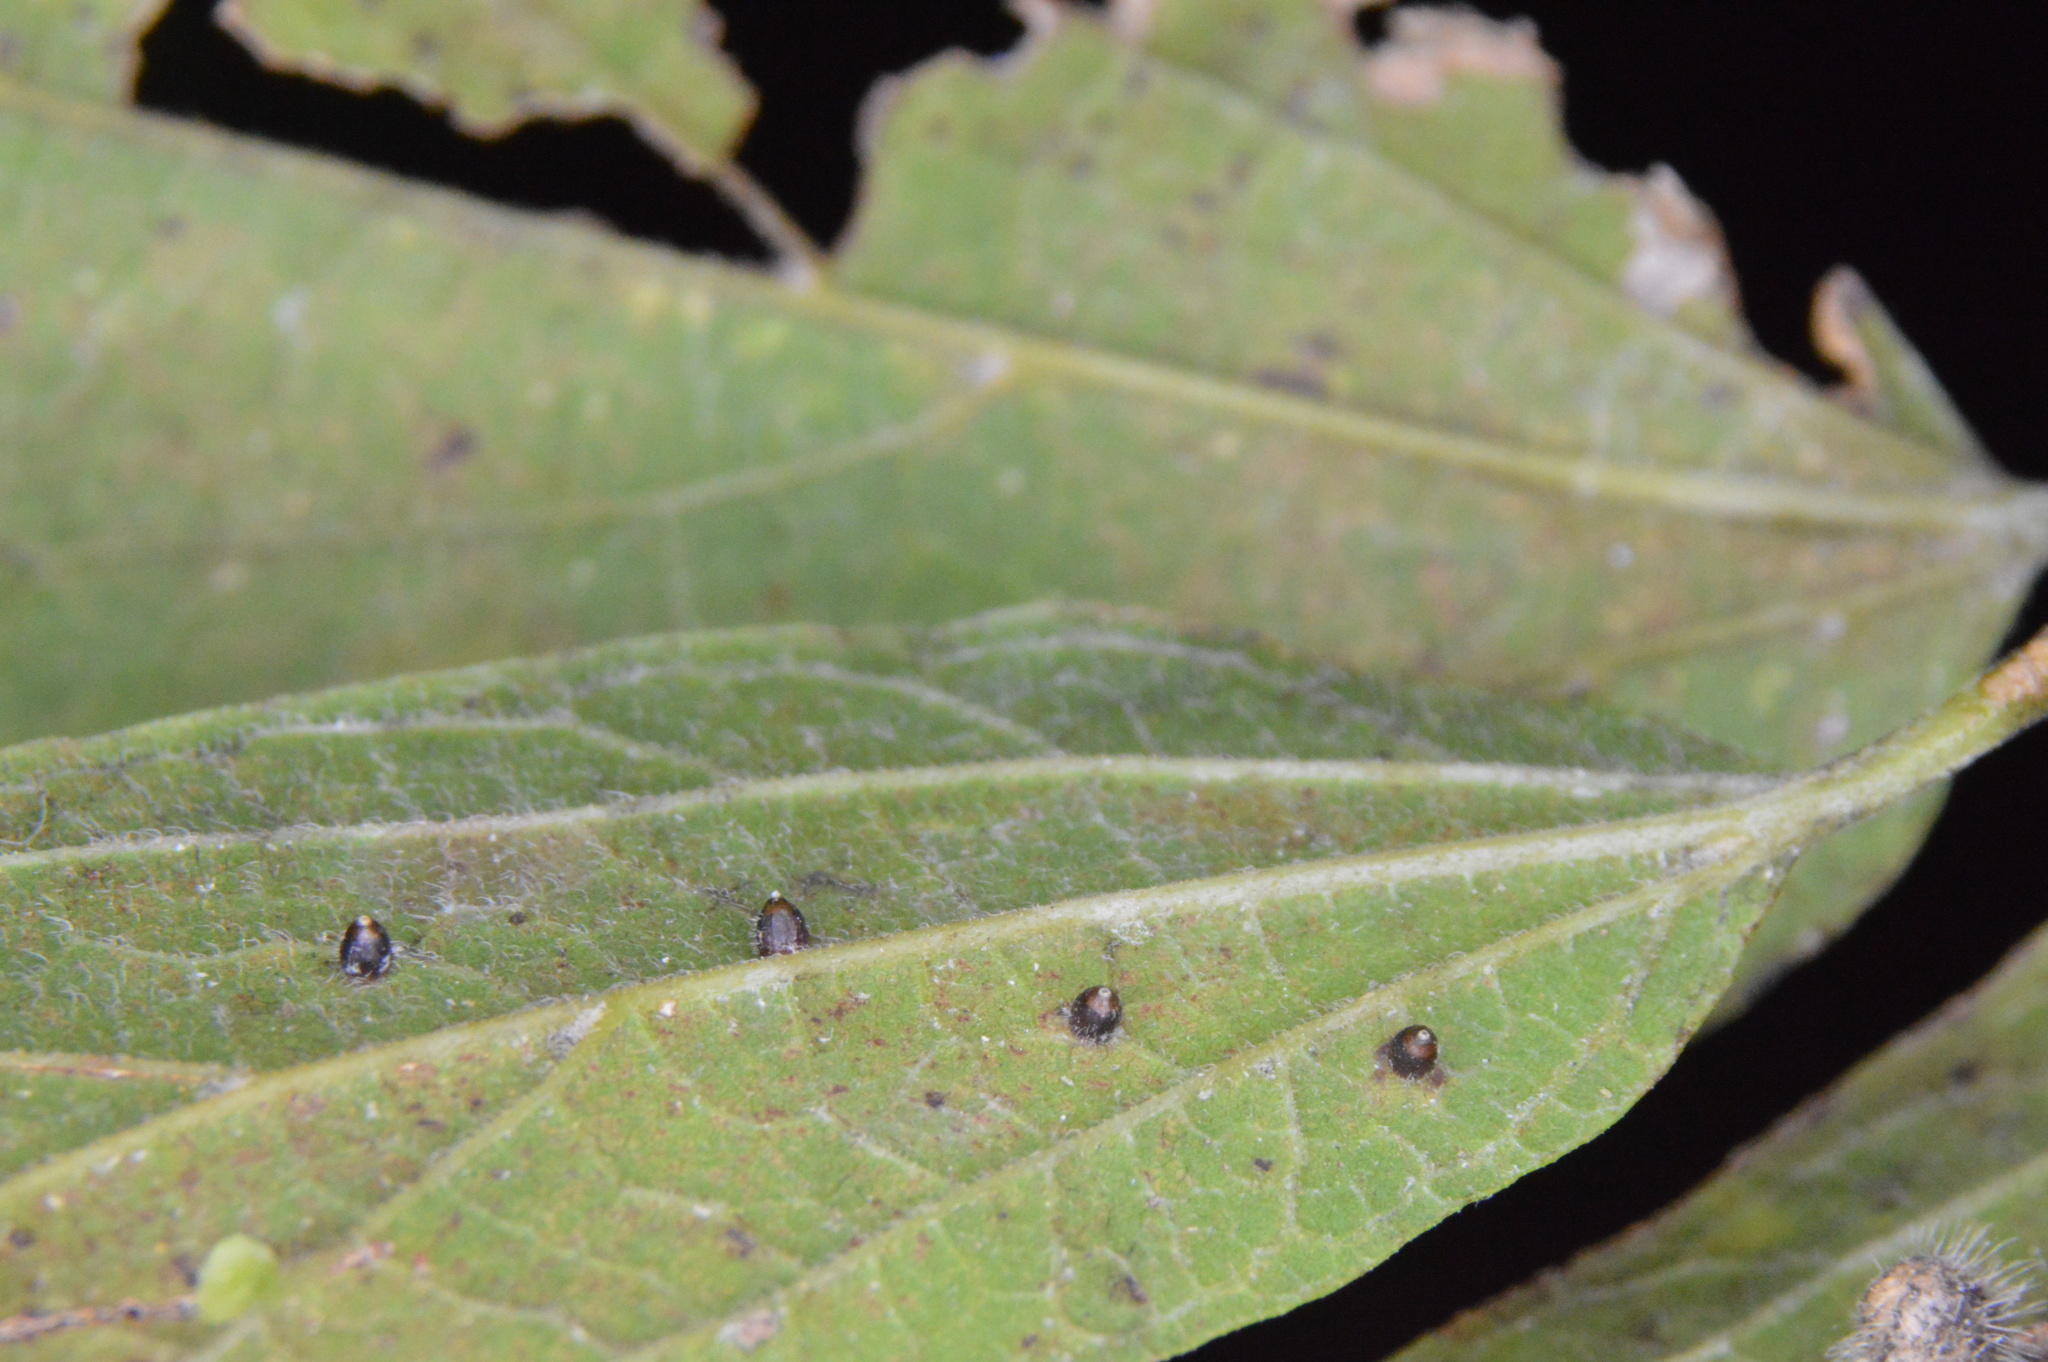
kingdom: Animalia
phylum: Arthropoda
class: Insecta
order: Diptera
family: Cecidomyiidae
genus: Celticecis
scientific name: Celticecis cupiformis
